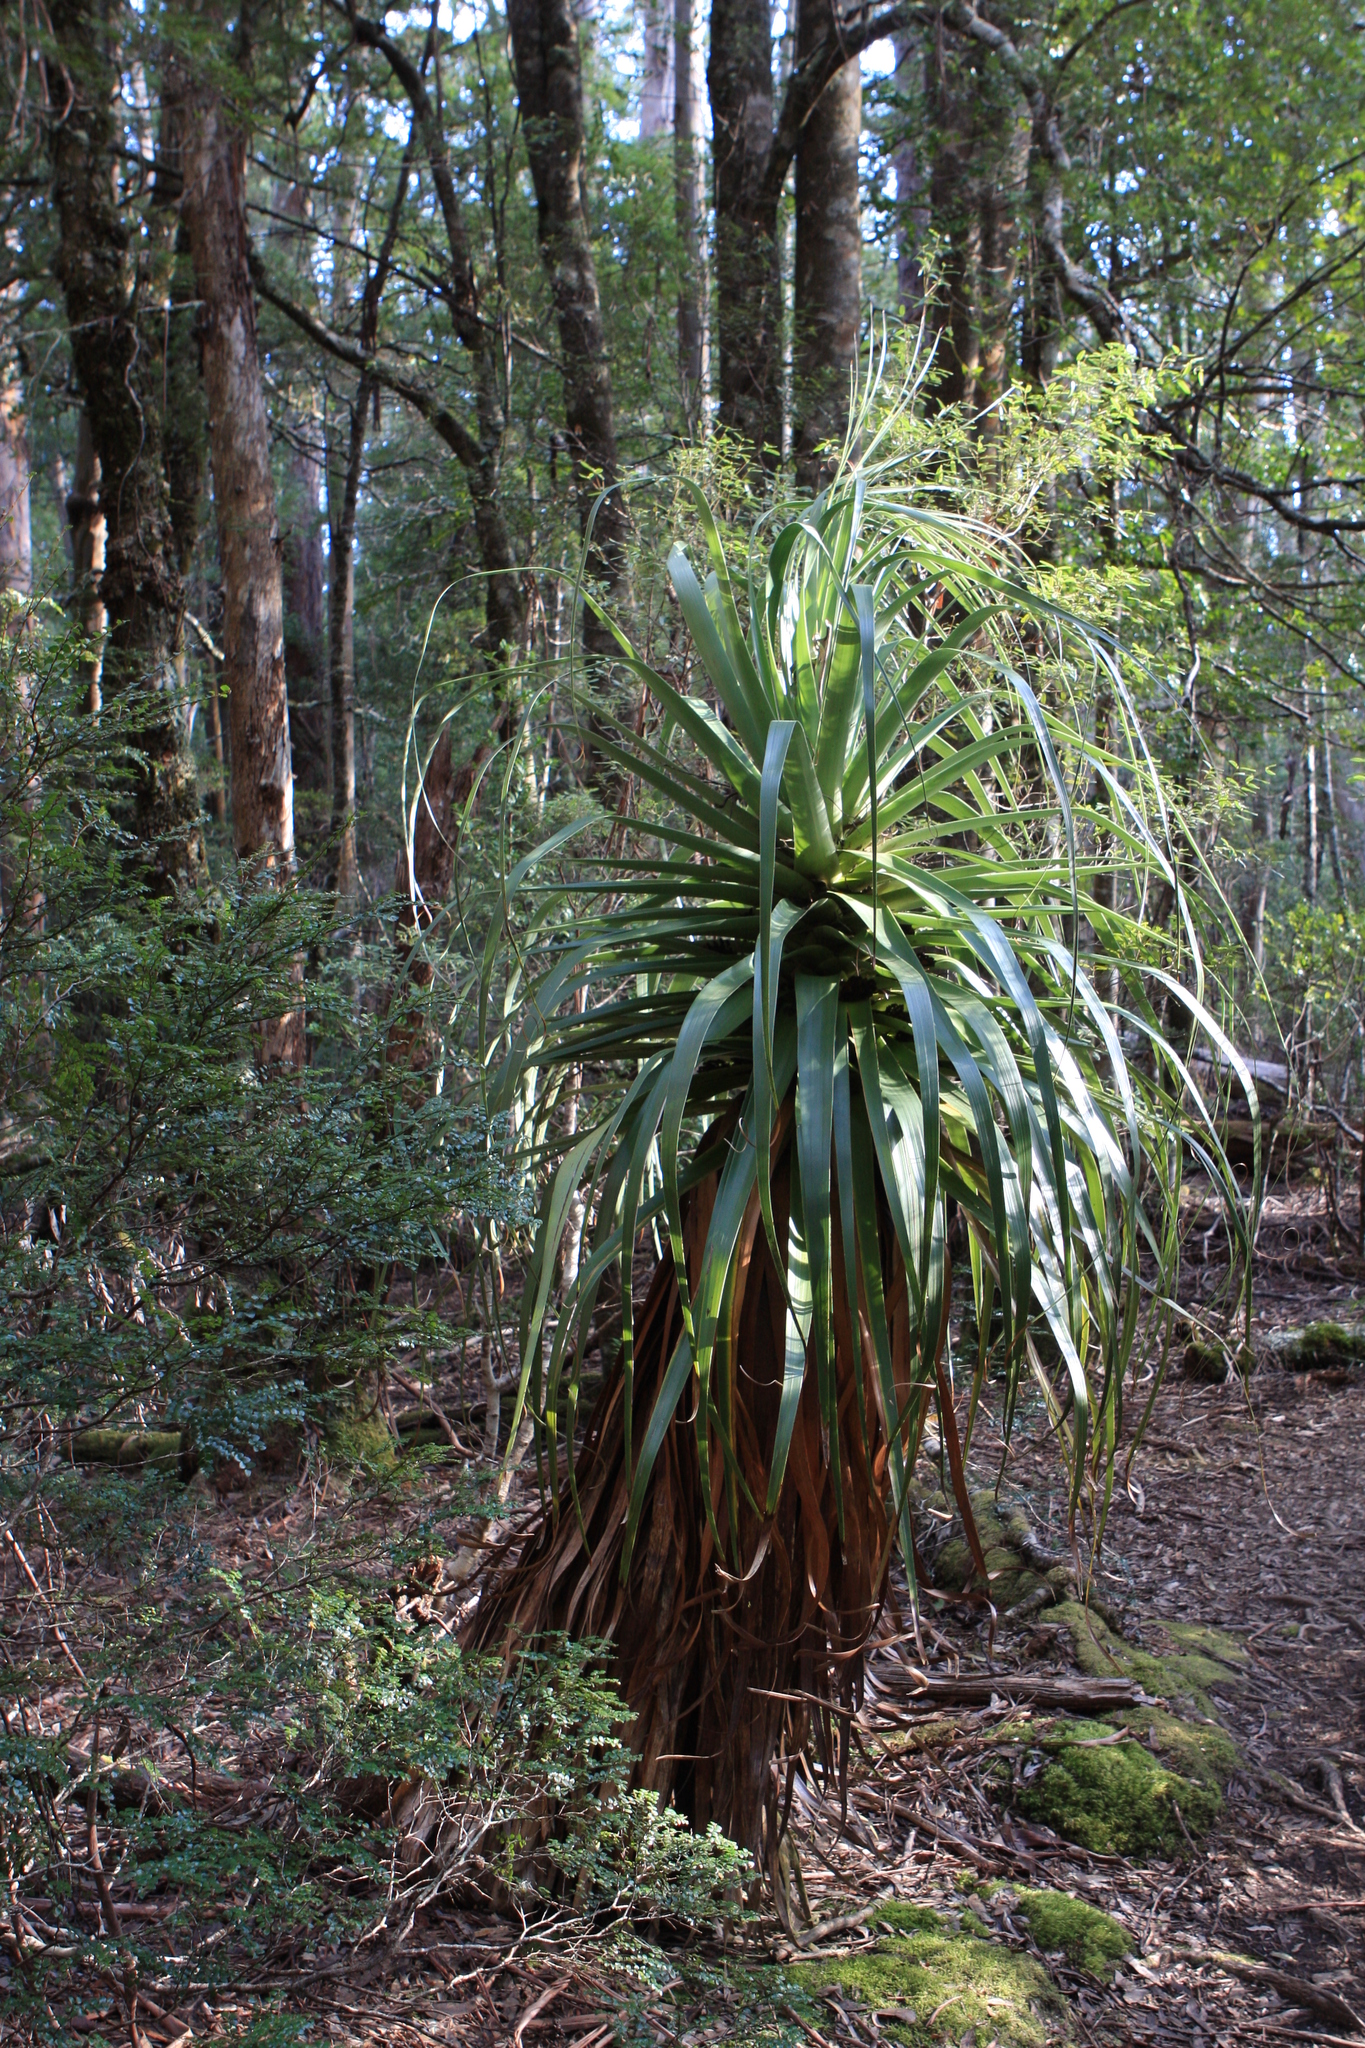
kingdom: Plantae
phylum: Tracheophyta
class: Magnoliopsida
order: Ericales
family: Ericaceae
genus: Dracophyllum
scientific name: Dracophyllum pandanifolium
